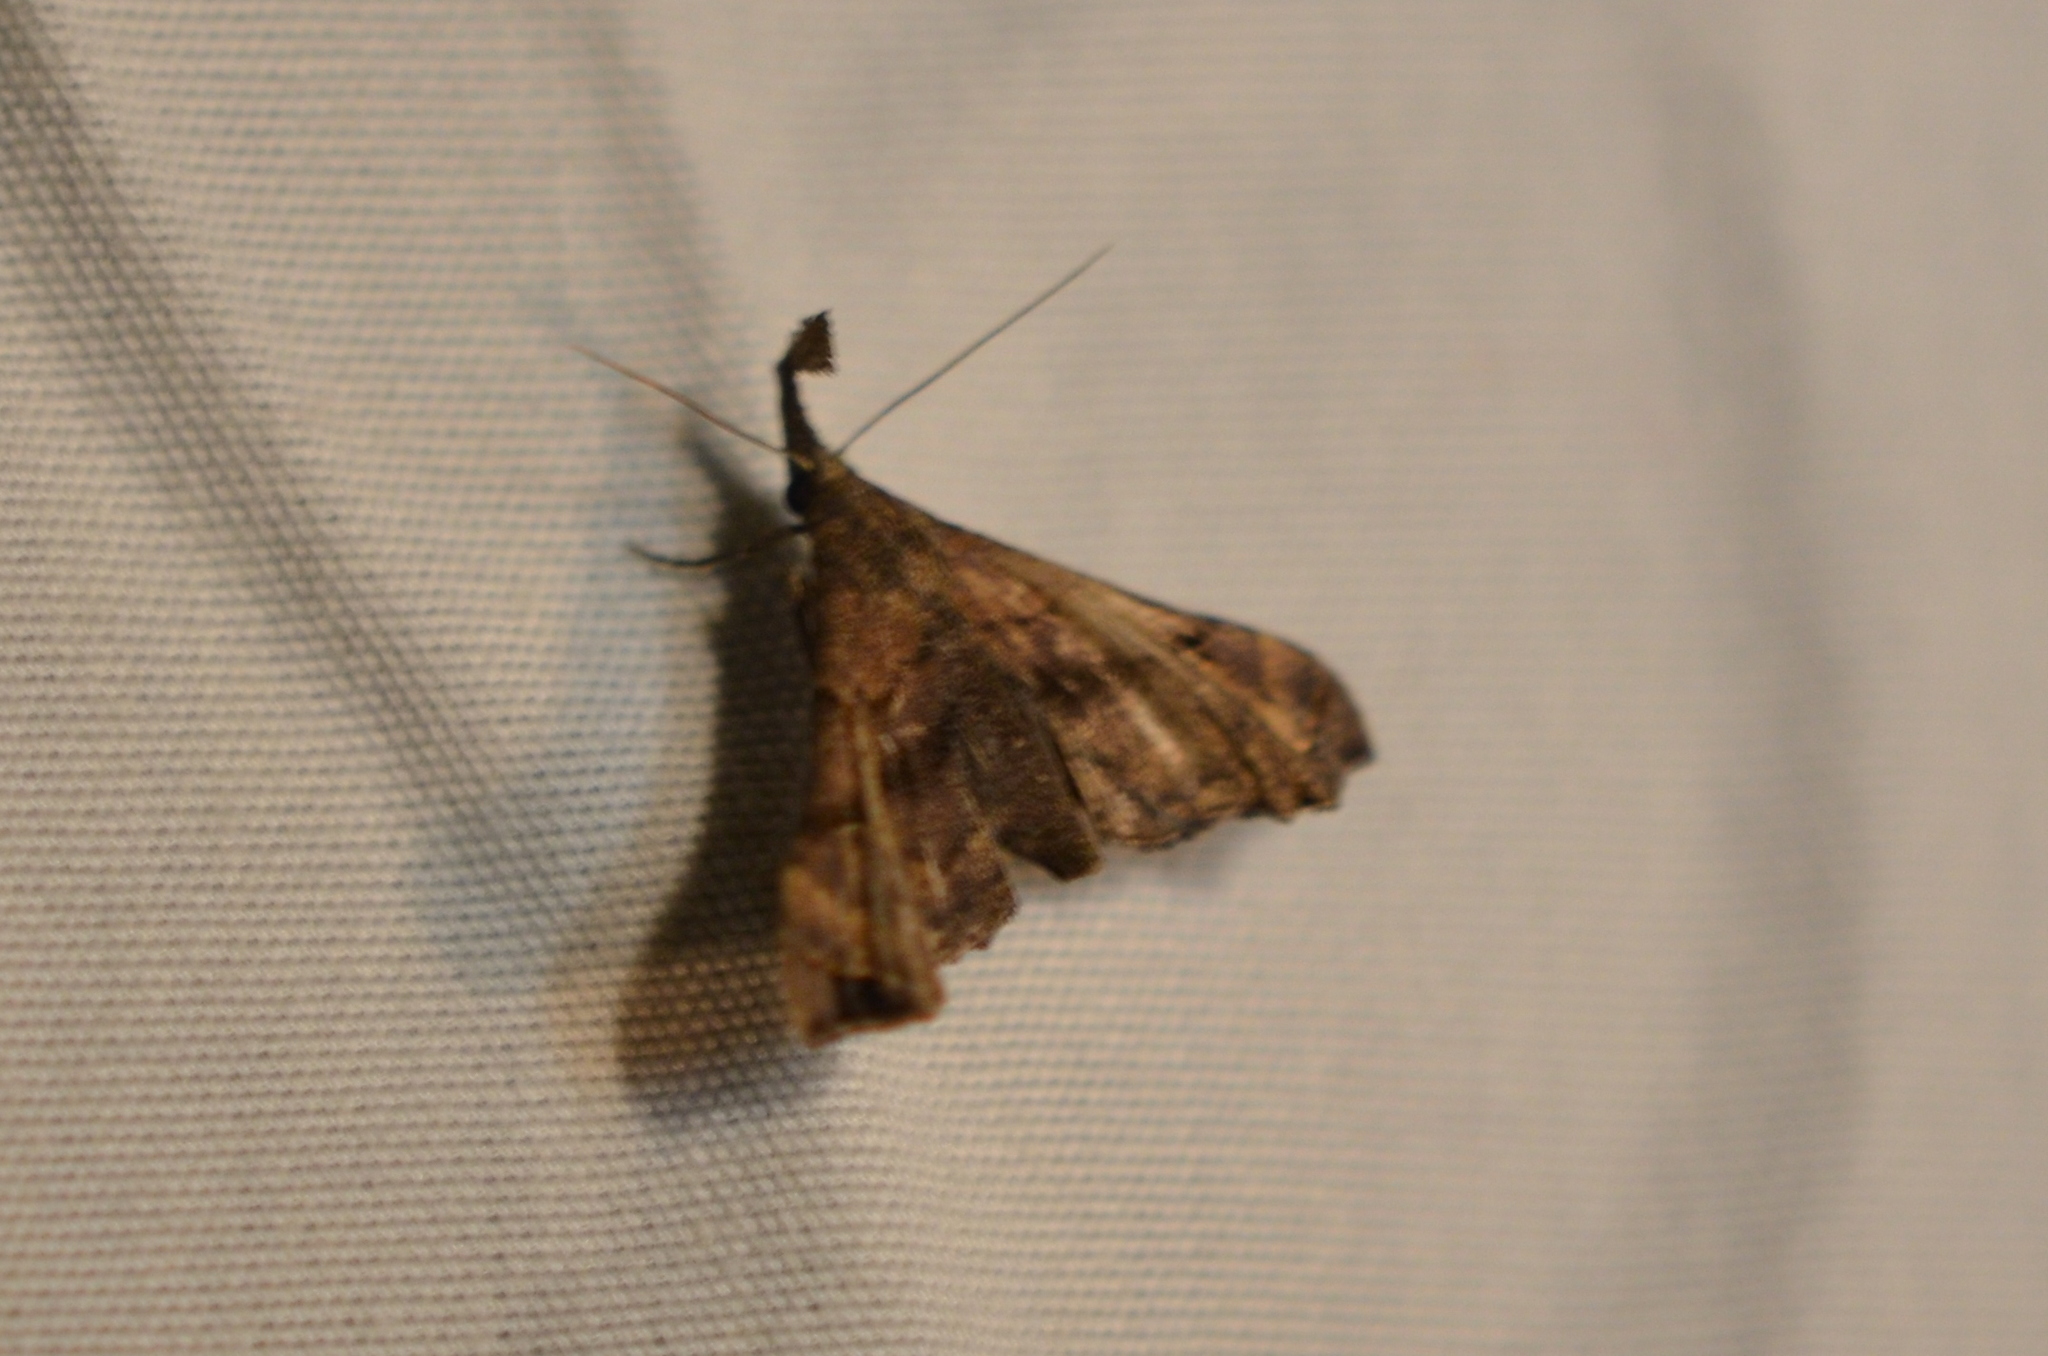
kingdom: Animalia
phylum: Arthropoda
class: Insecta
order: Lepidoptera
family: Erebidae
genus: Palthis
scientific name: Palthis asopialis
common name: Faint-spotted palthis moth
